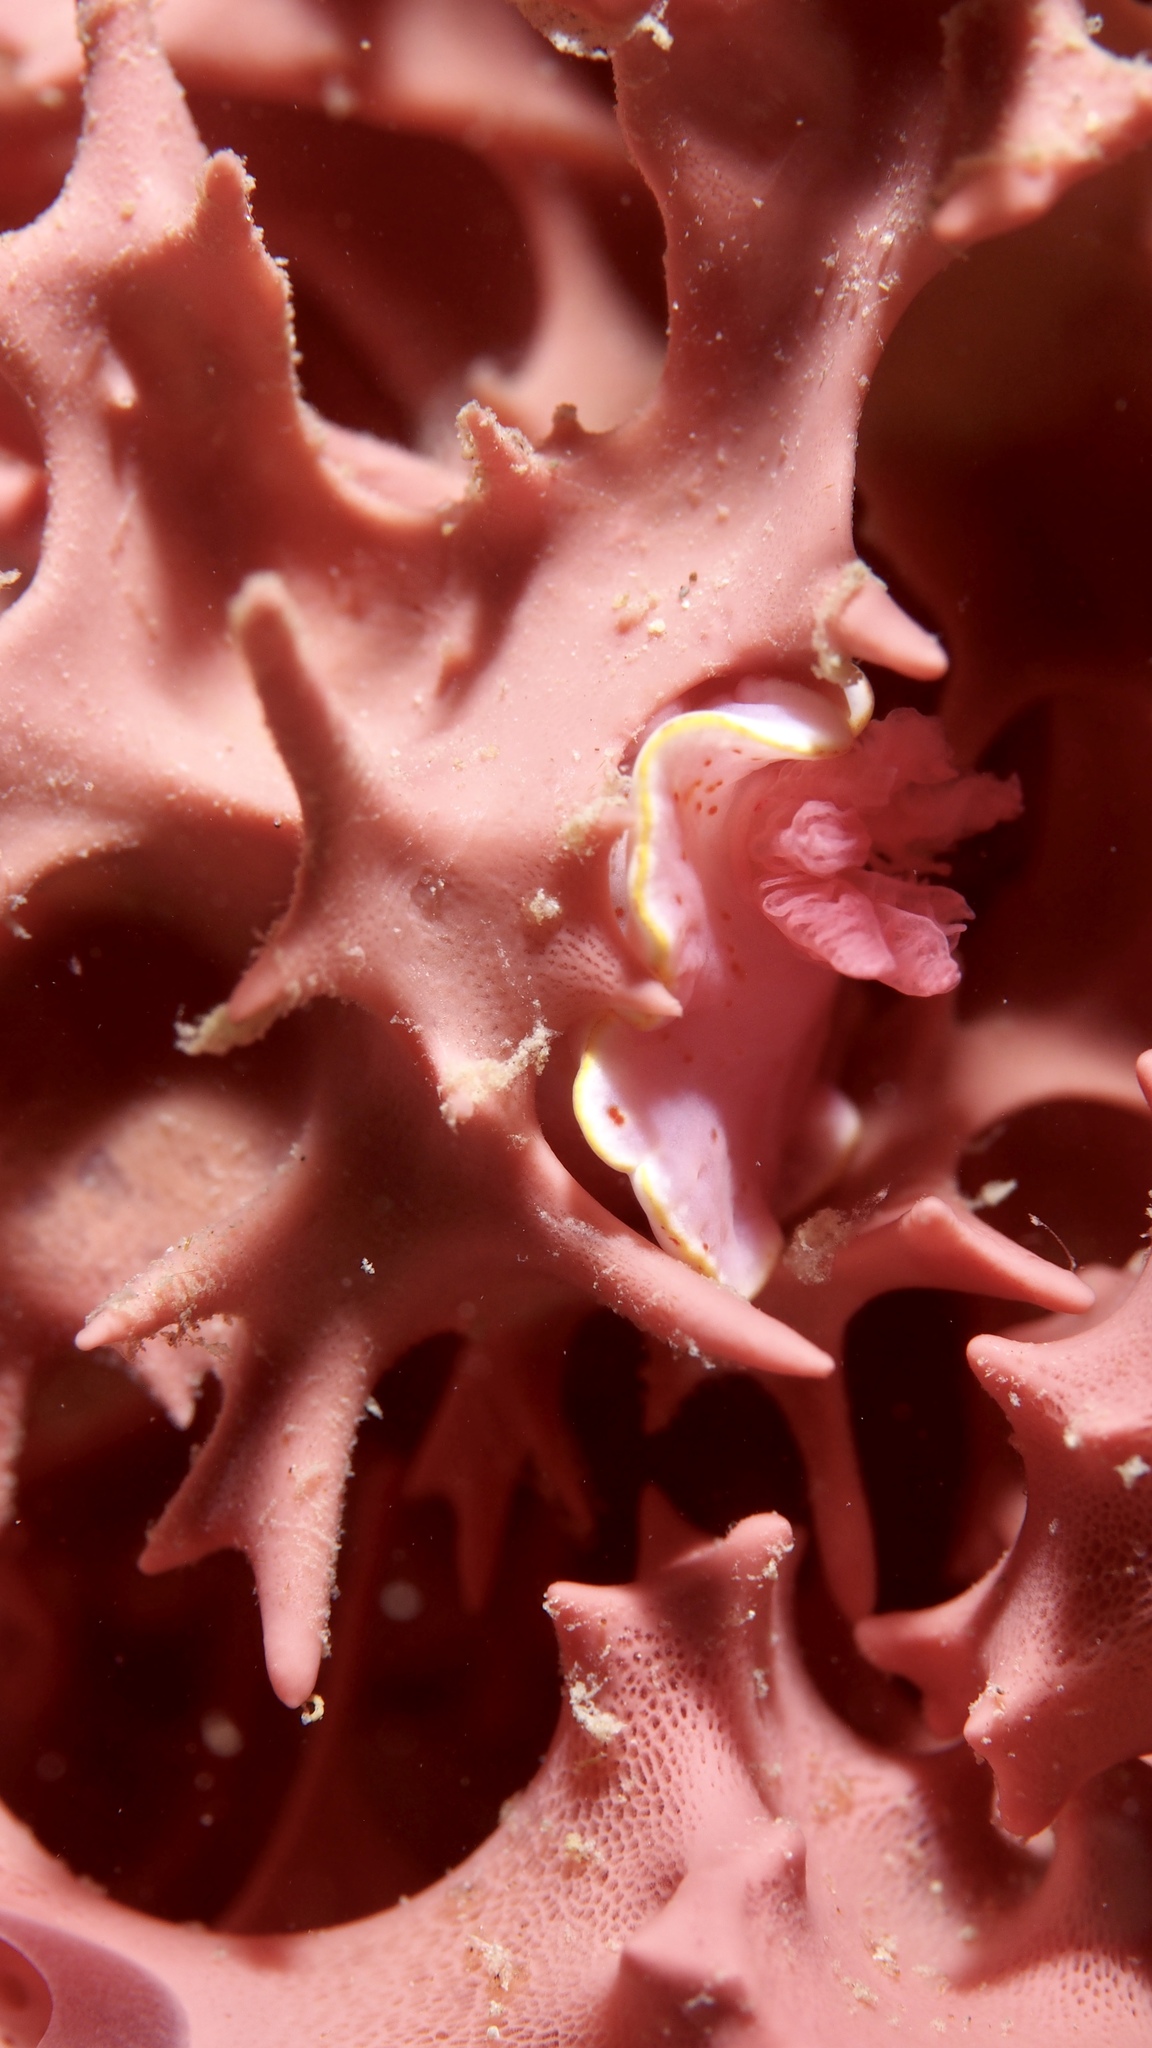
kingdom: Animalia
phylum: Mollusca
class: Gastropoda
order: Nudibranchia
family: Chromodorididae
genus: Verconia
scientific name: Verconia haliclona
